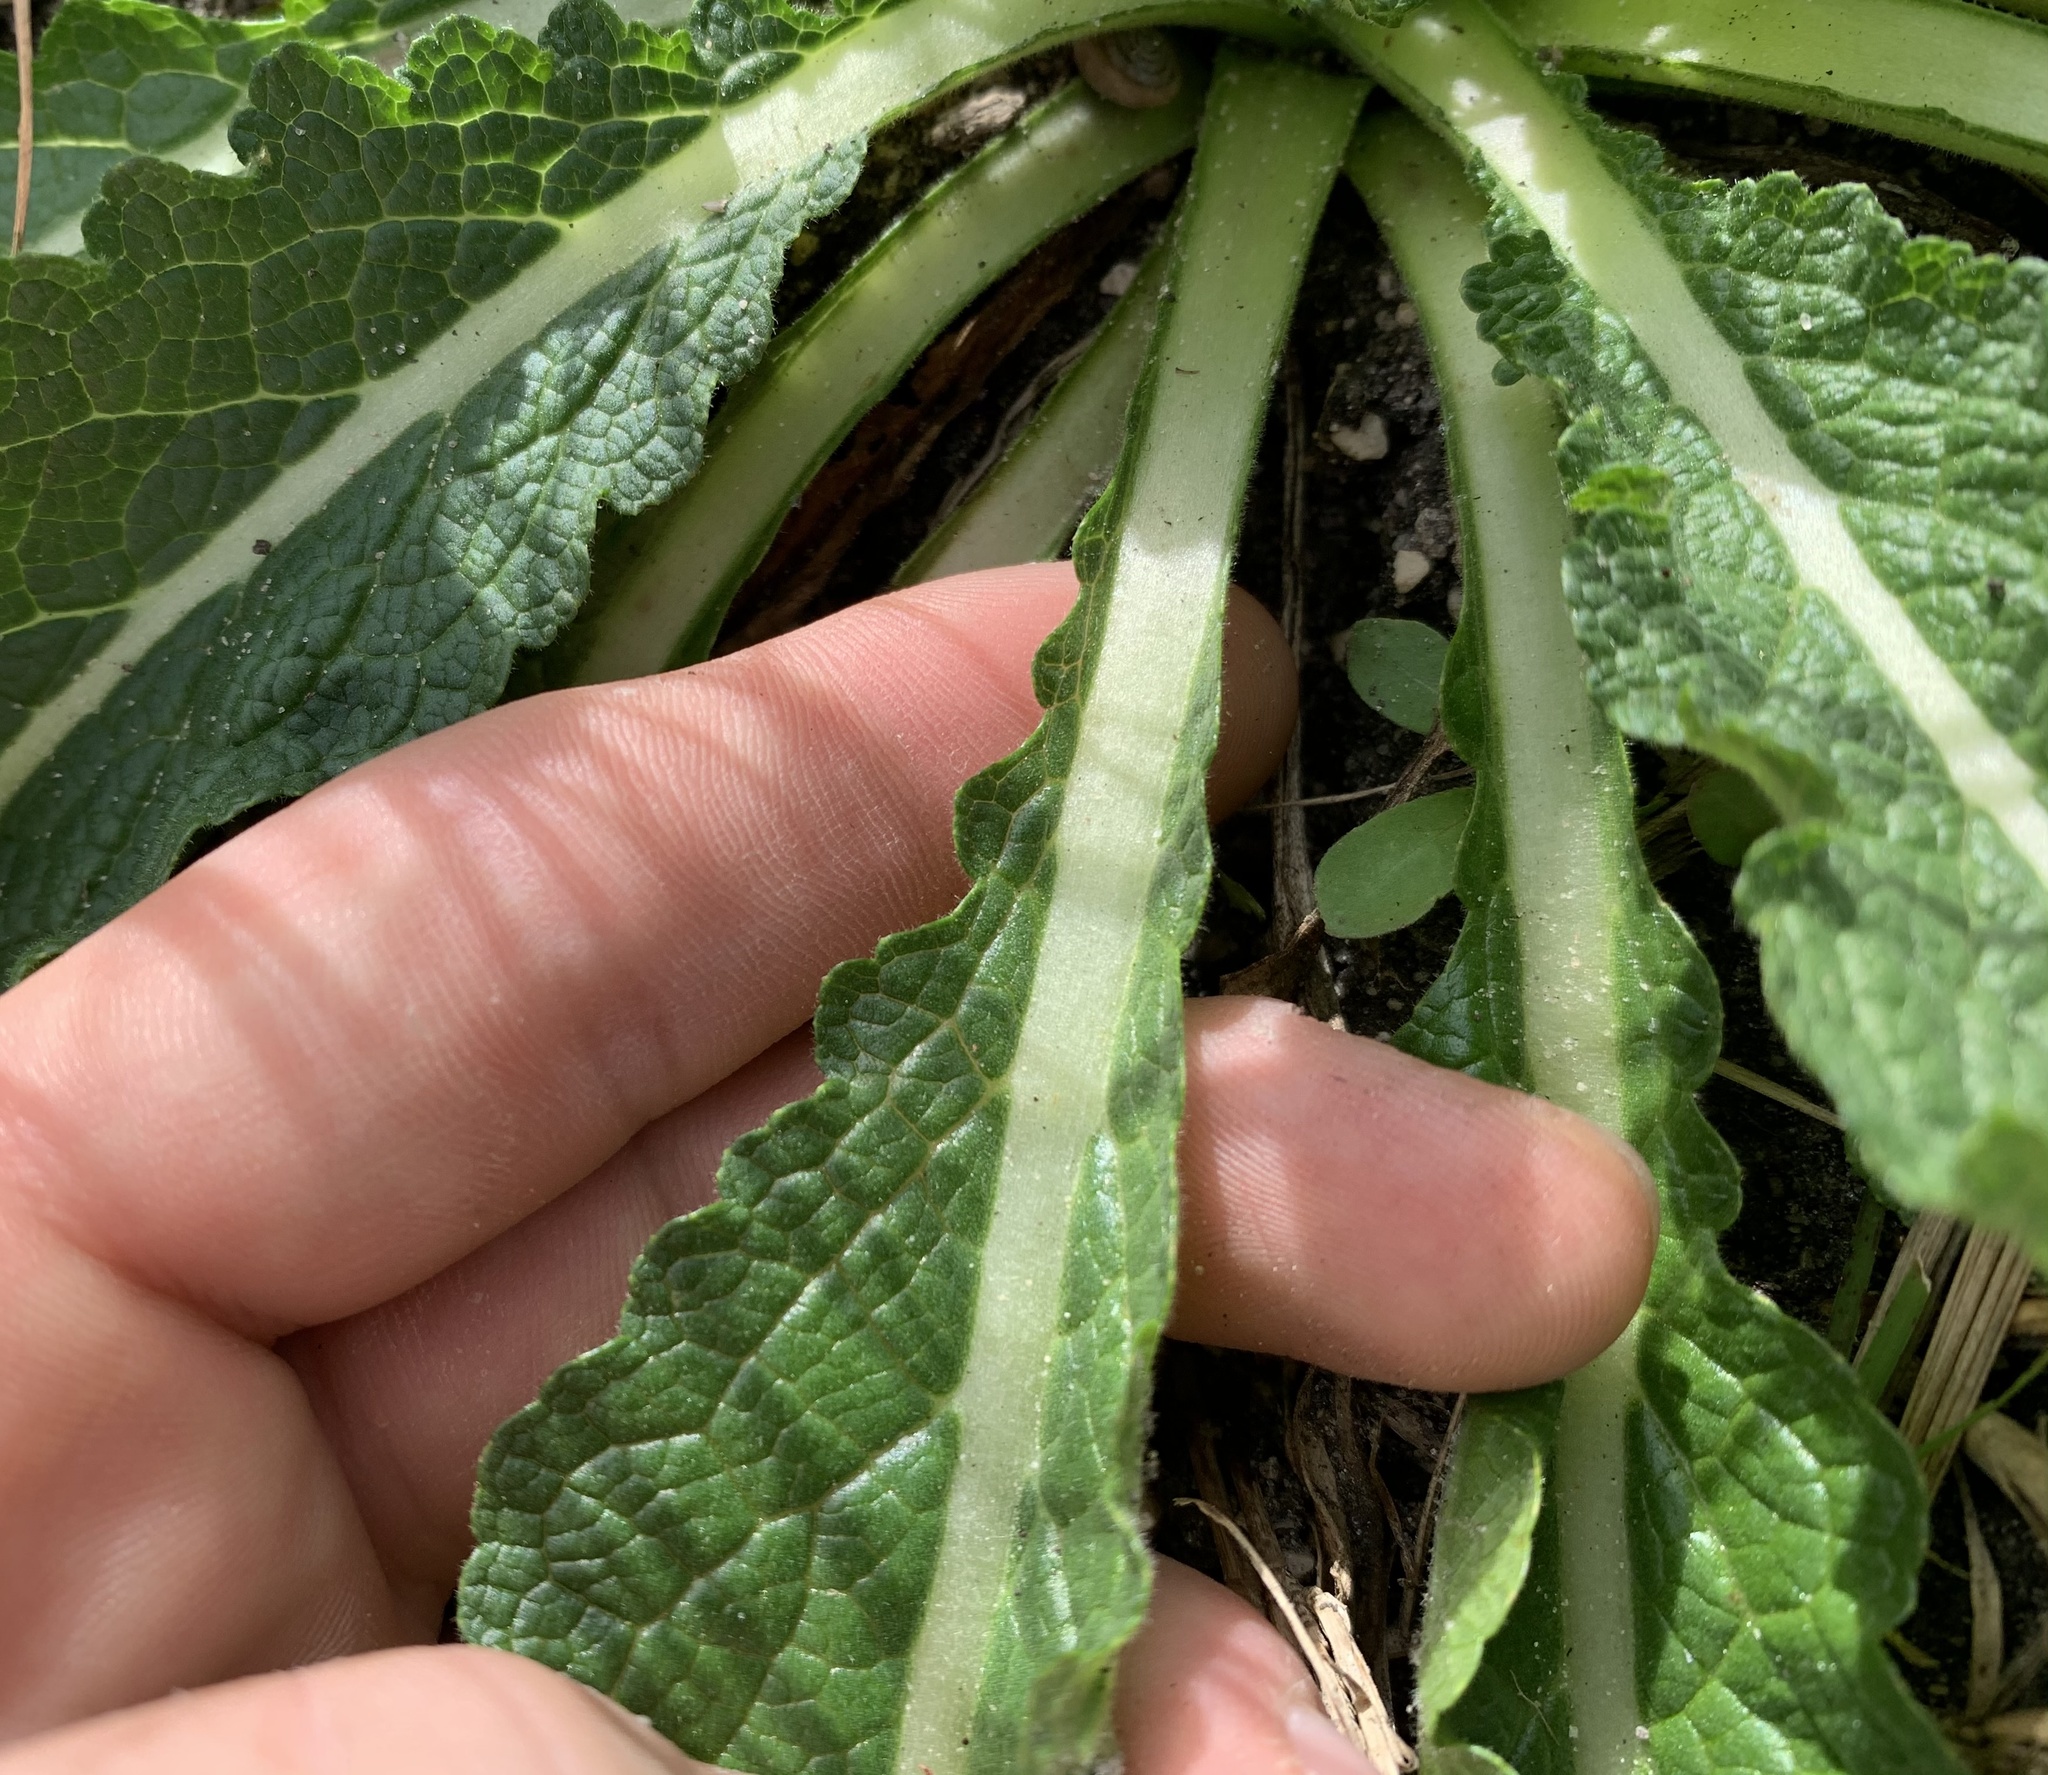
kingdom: Plantae
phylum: Tracheophyta
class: Magnoliopsida
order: Lamiales
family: Scrophulariaceae
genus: Verbascum
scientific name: Verbascum virgatum
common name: Twiggy mullein
